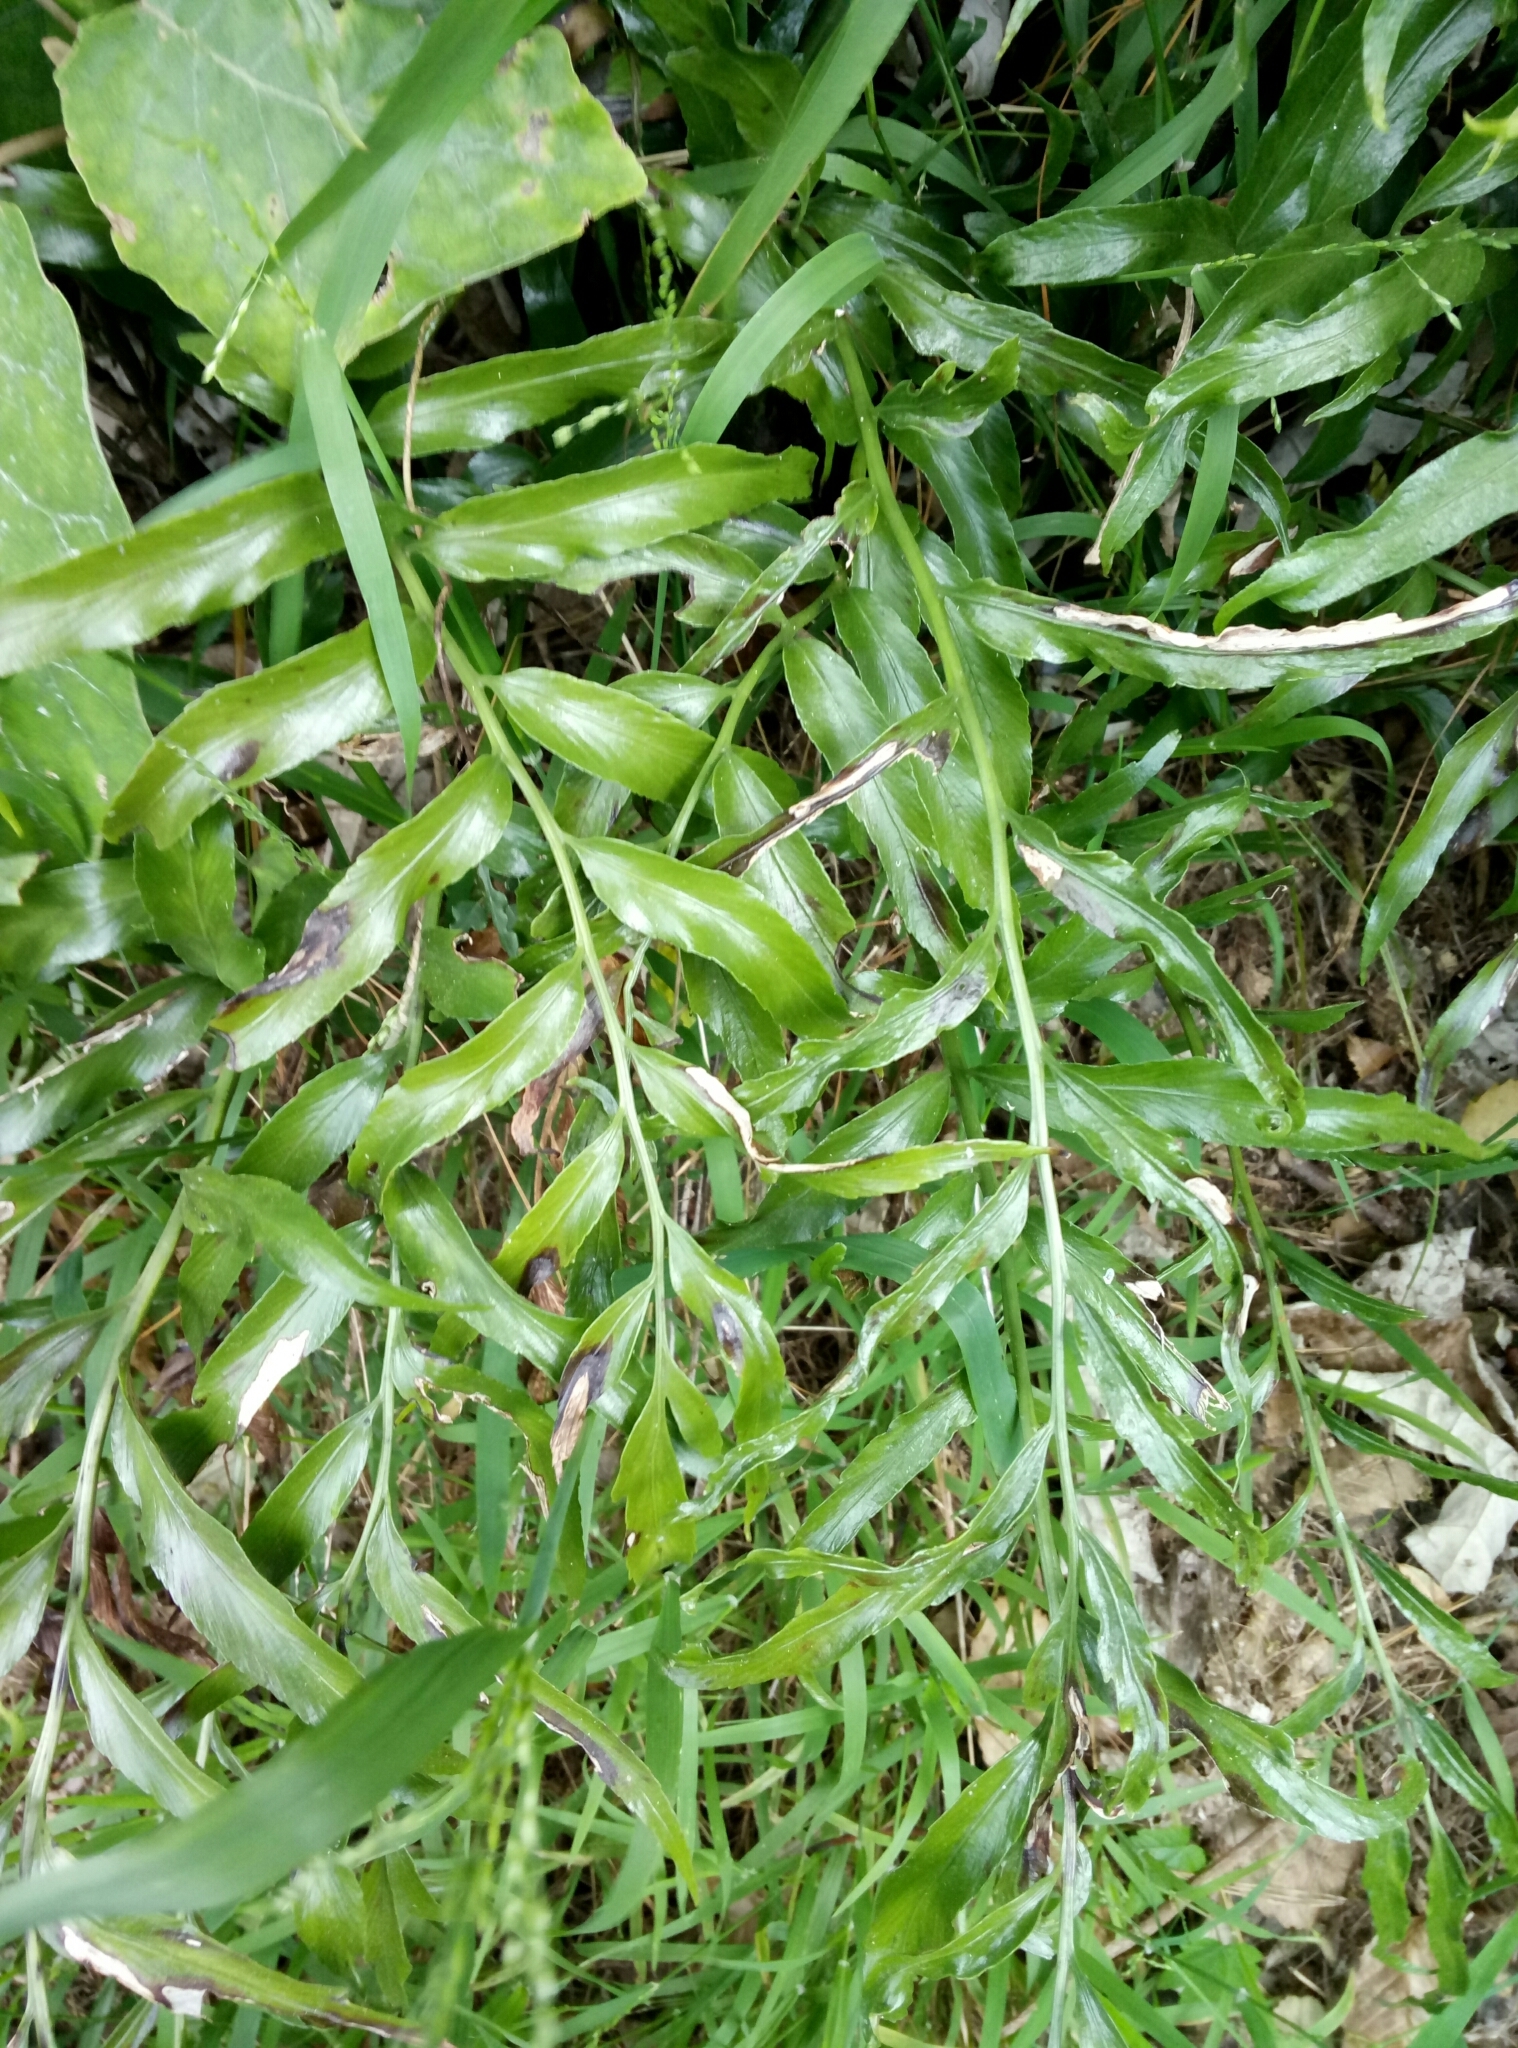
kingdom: Plantae
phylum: Tracheophyta
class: Polypodiopsida
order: Polypodiales
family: Aspleniaceae
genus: Asplenium
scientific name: Asplenium oblongifolium
